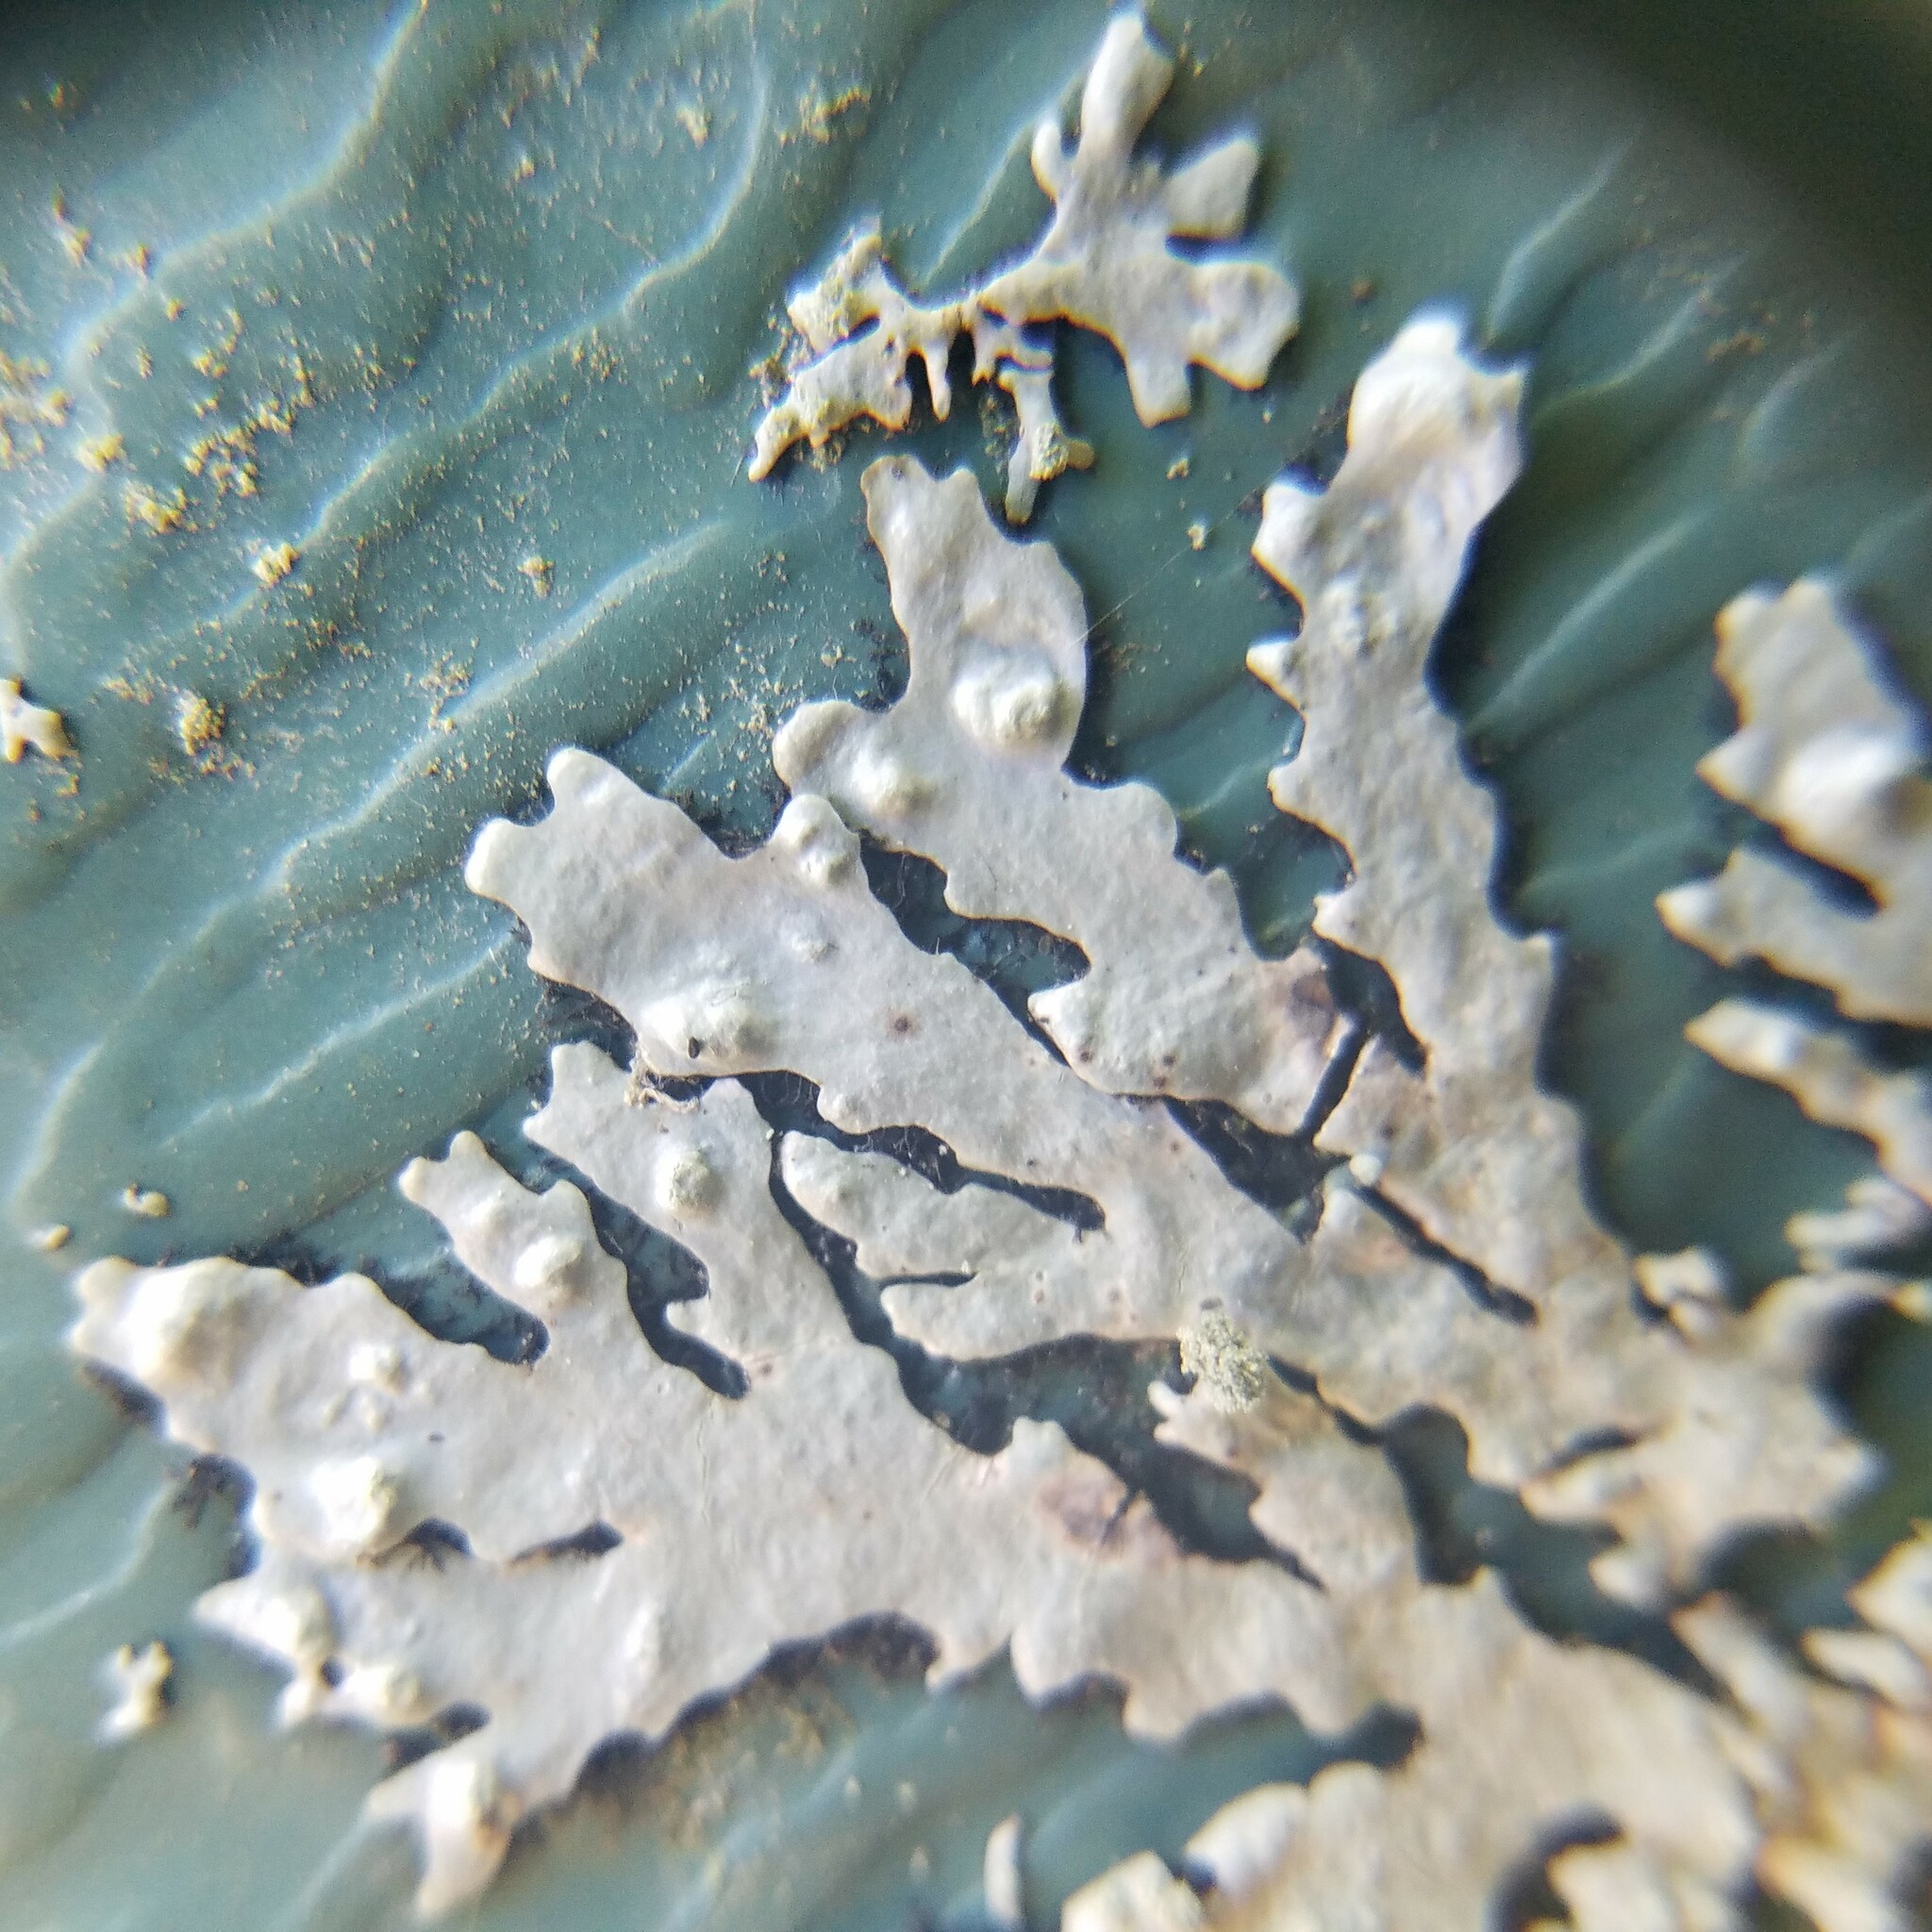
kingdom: Fungi
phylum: Ascomycota
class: Lecanoromycetes
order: Lecanorales
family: Parmeliaceae
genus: Hypotrachyna
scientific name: Hypotrachyna lividescens
